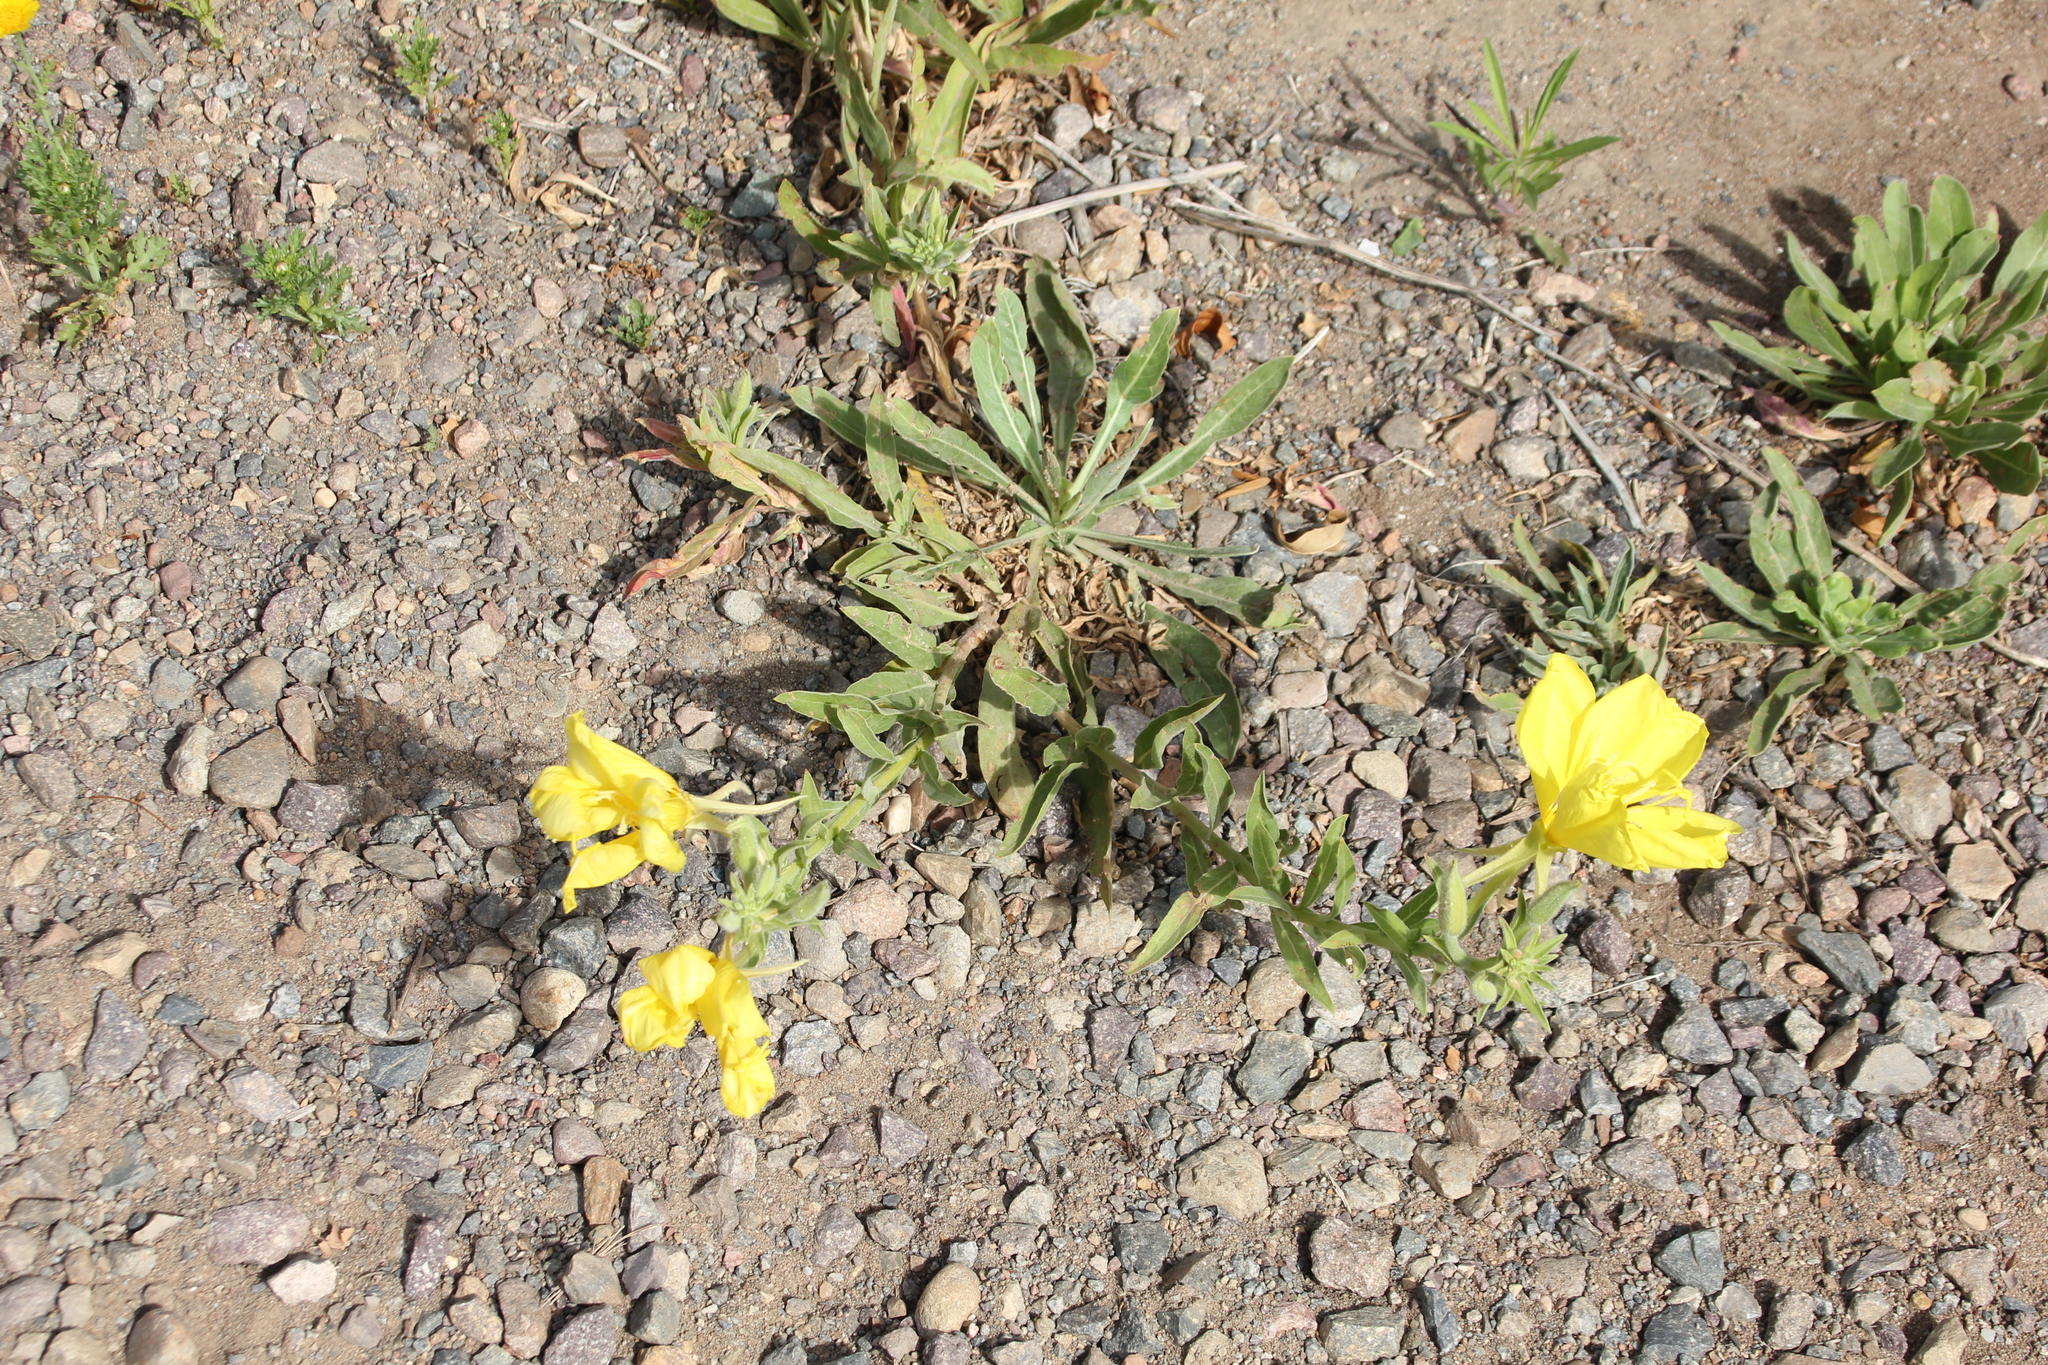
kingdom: Plantae
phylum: Tracheophyta
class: Magnoliopsida
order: Myrtales
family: Onagraceae
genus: Oenothera
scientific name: Oenothera elata
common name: Hooker's evening-primrose
